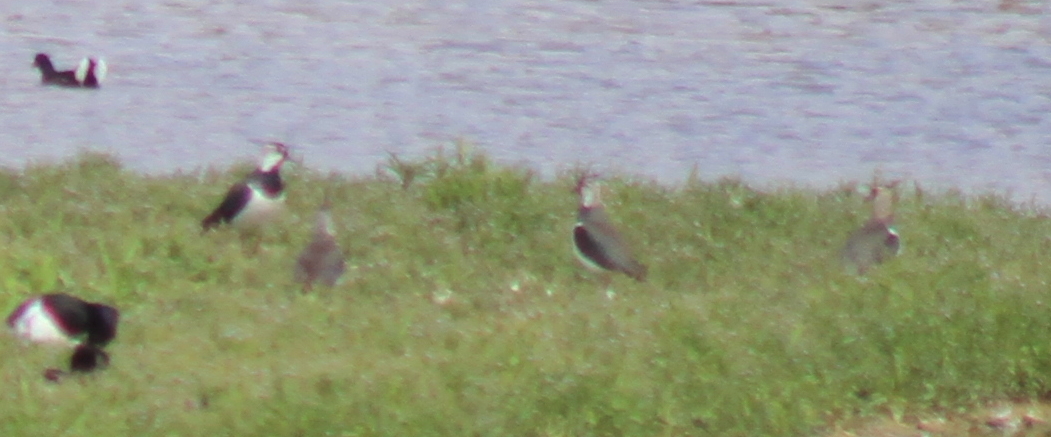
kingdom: Animalia
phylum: Chordata
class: Aves
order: Charadriiformes
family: Charadriidae
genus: Vanellus
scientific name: Vanellus vanellus
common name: Northern lapwing
